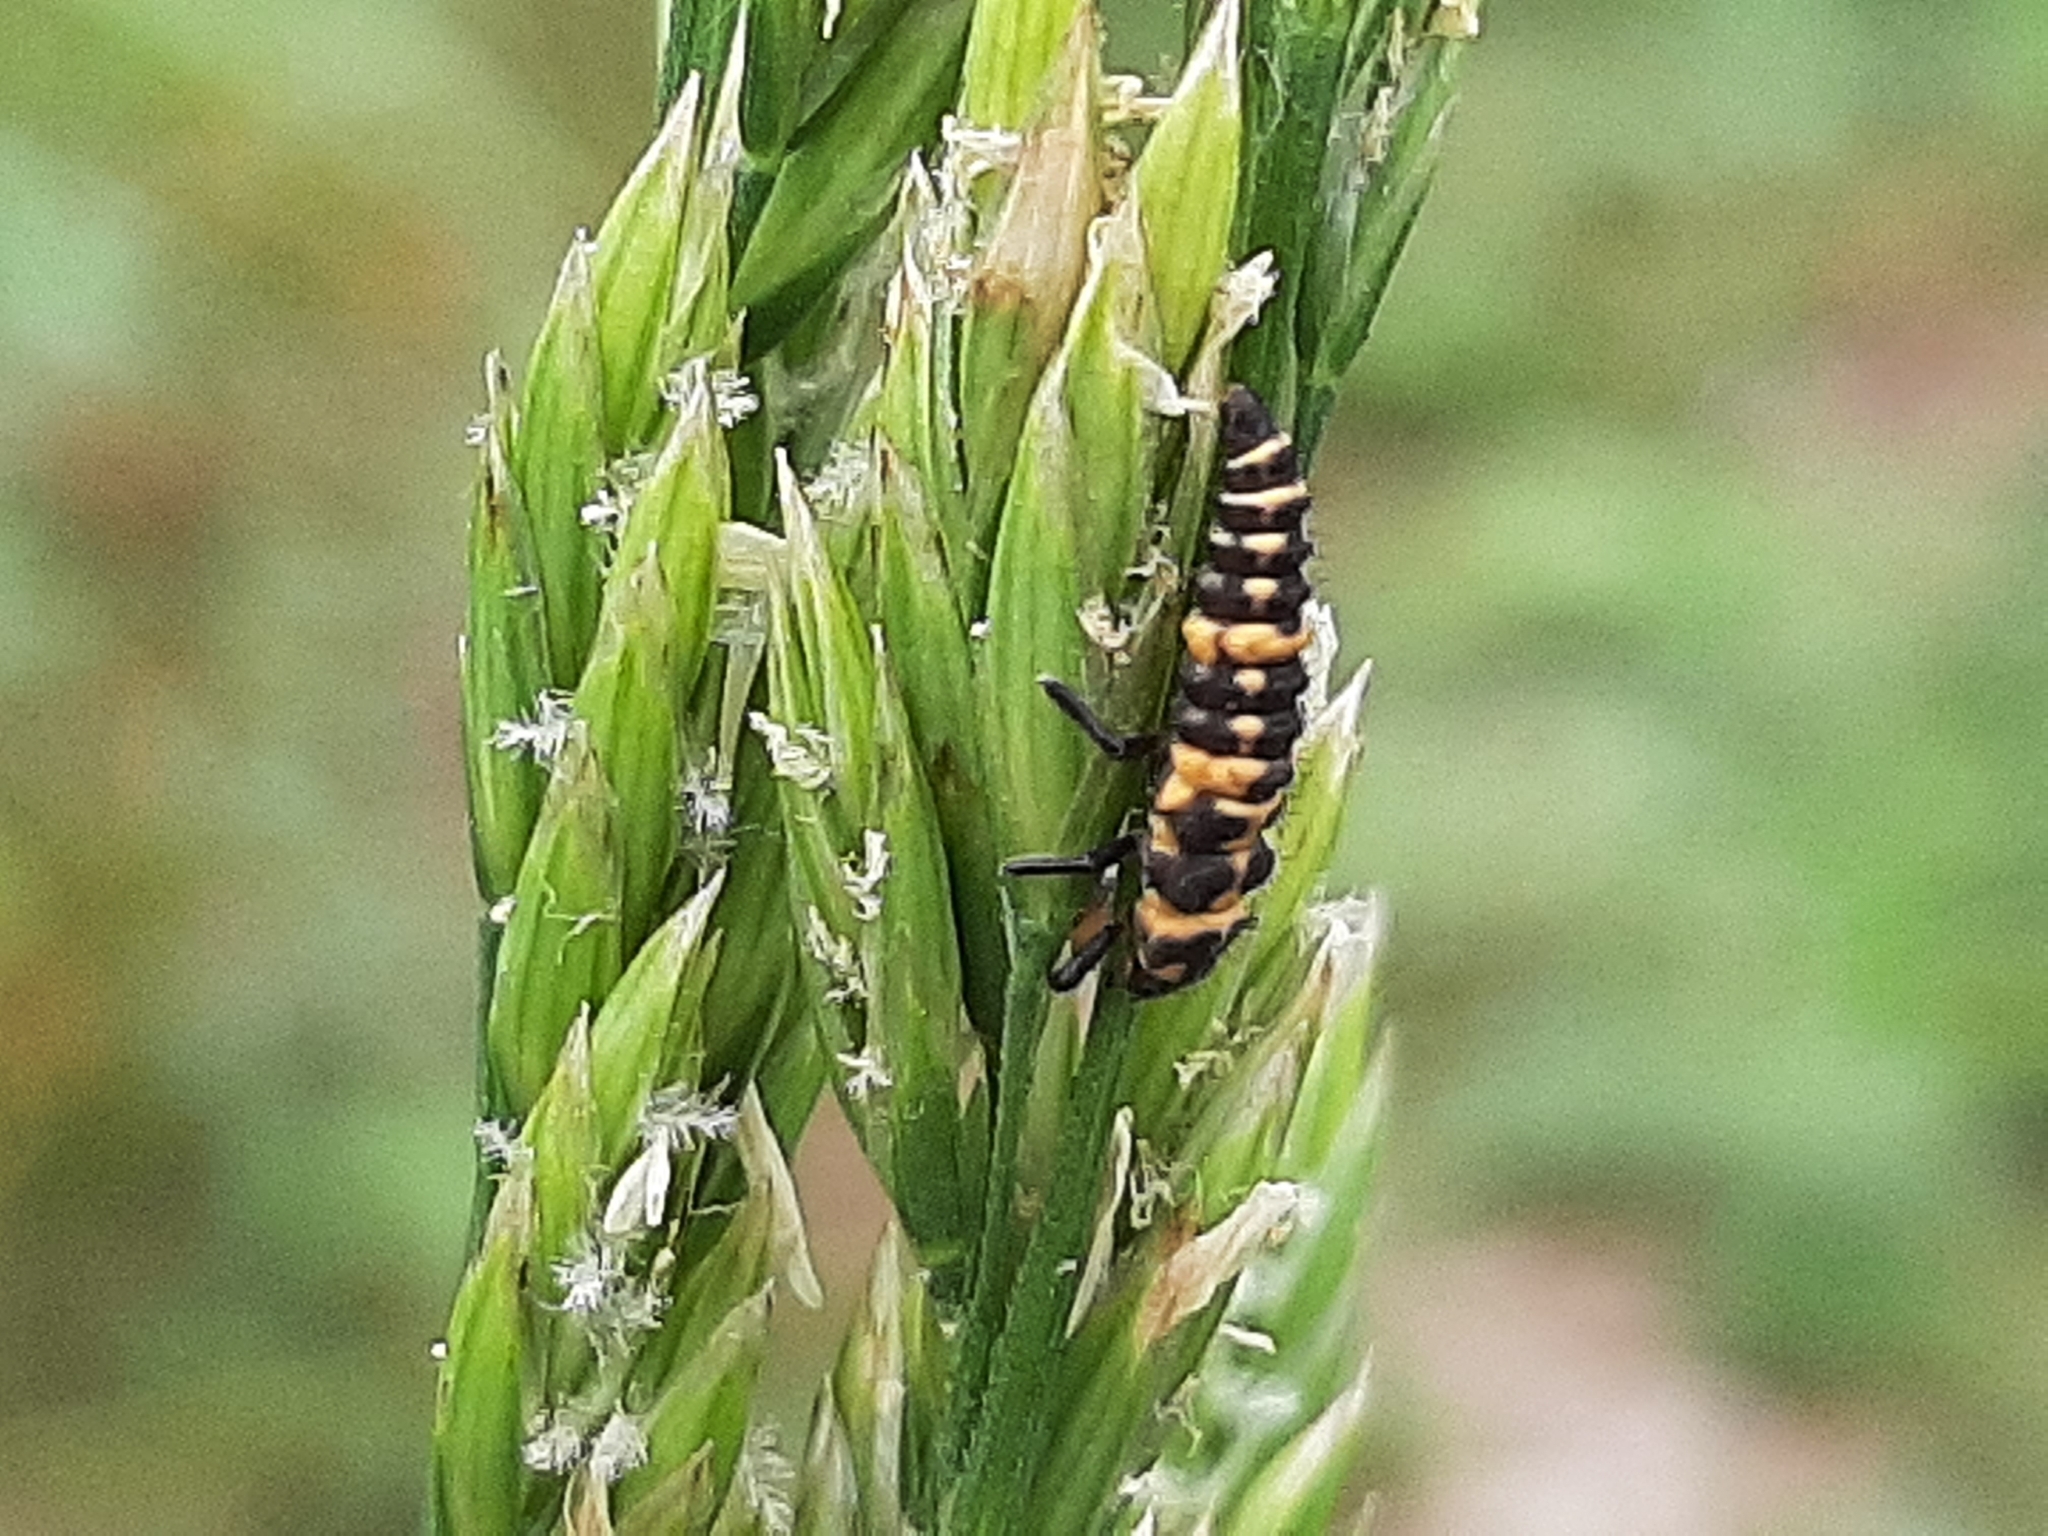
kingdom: Animalia
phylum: Arthropoda
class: Insecta
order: Coleoptera
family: Coccinellidae
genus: Coleomegilla
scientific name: Coleomegilla maculata
